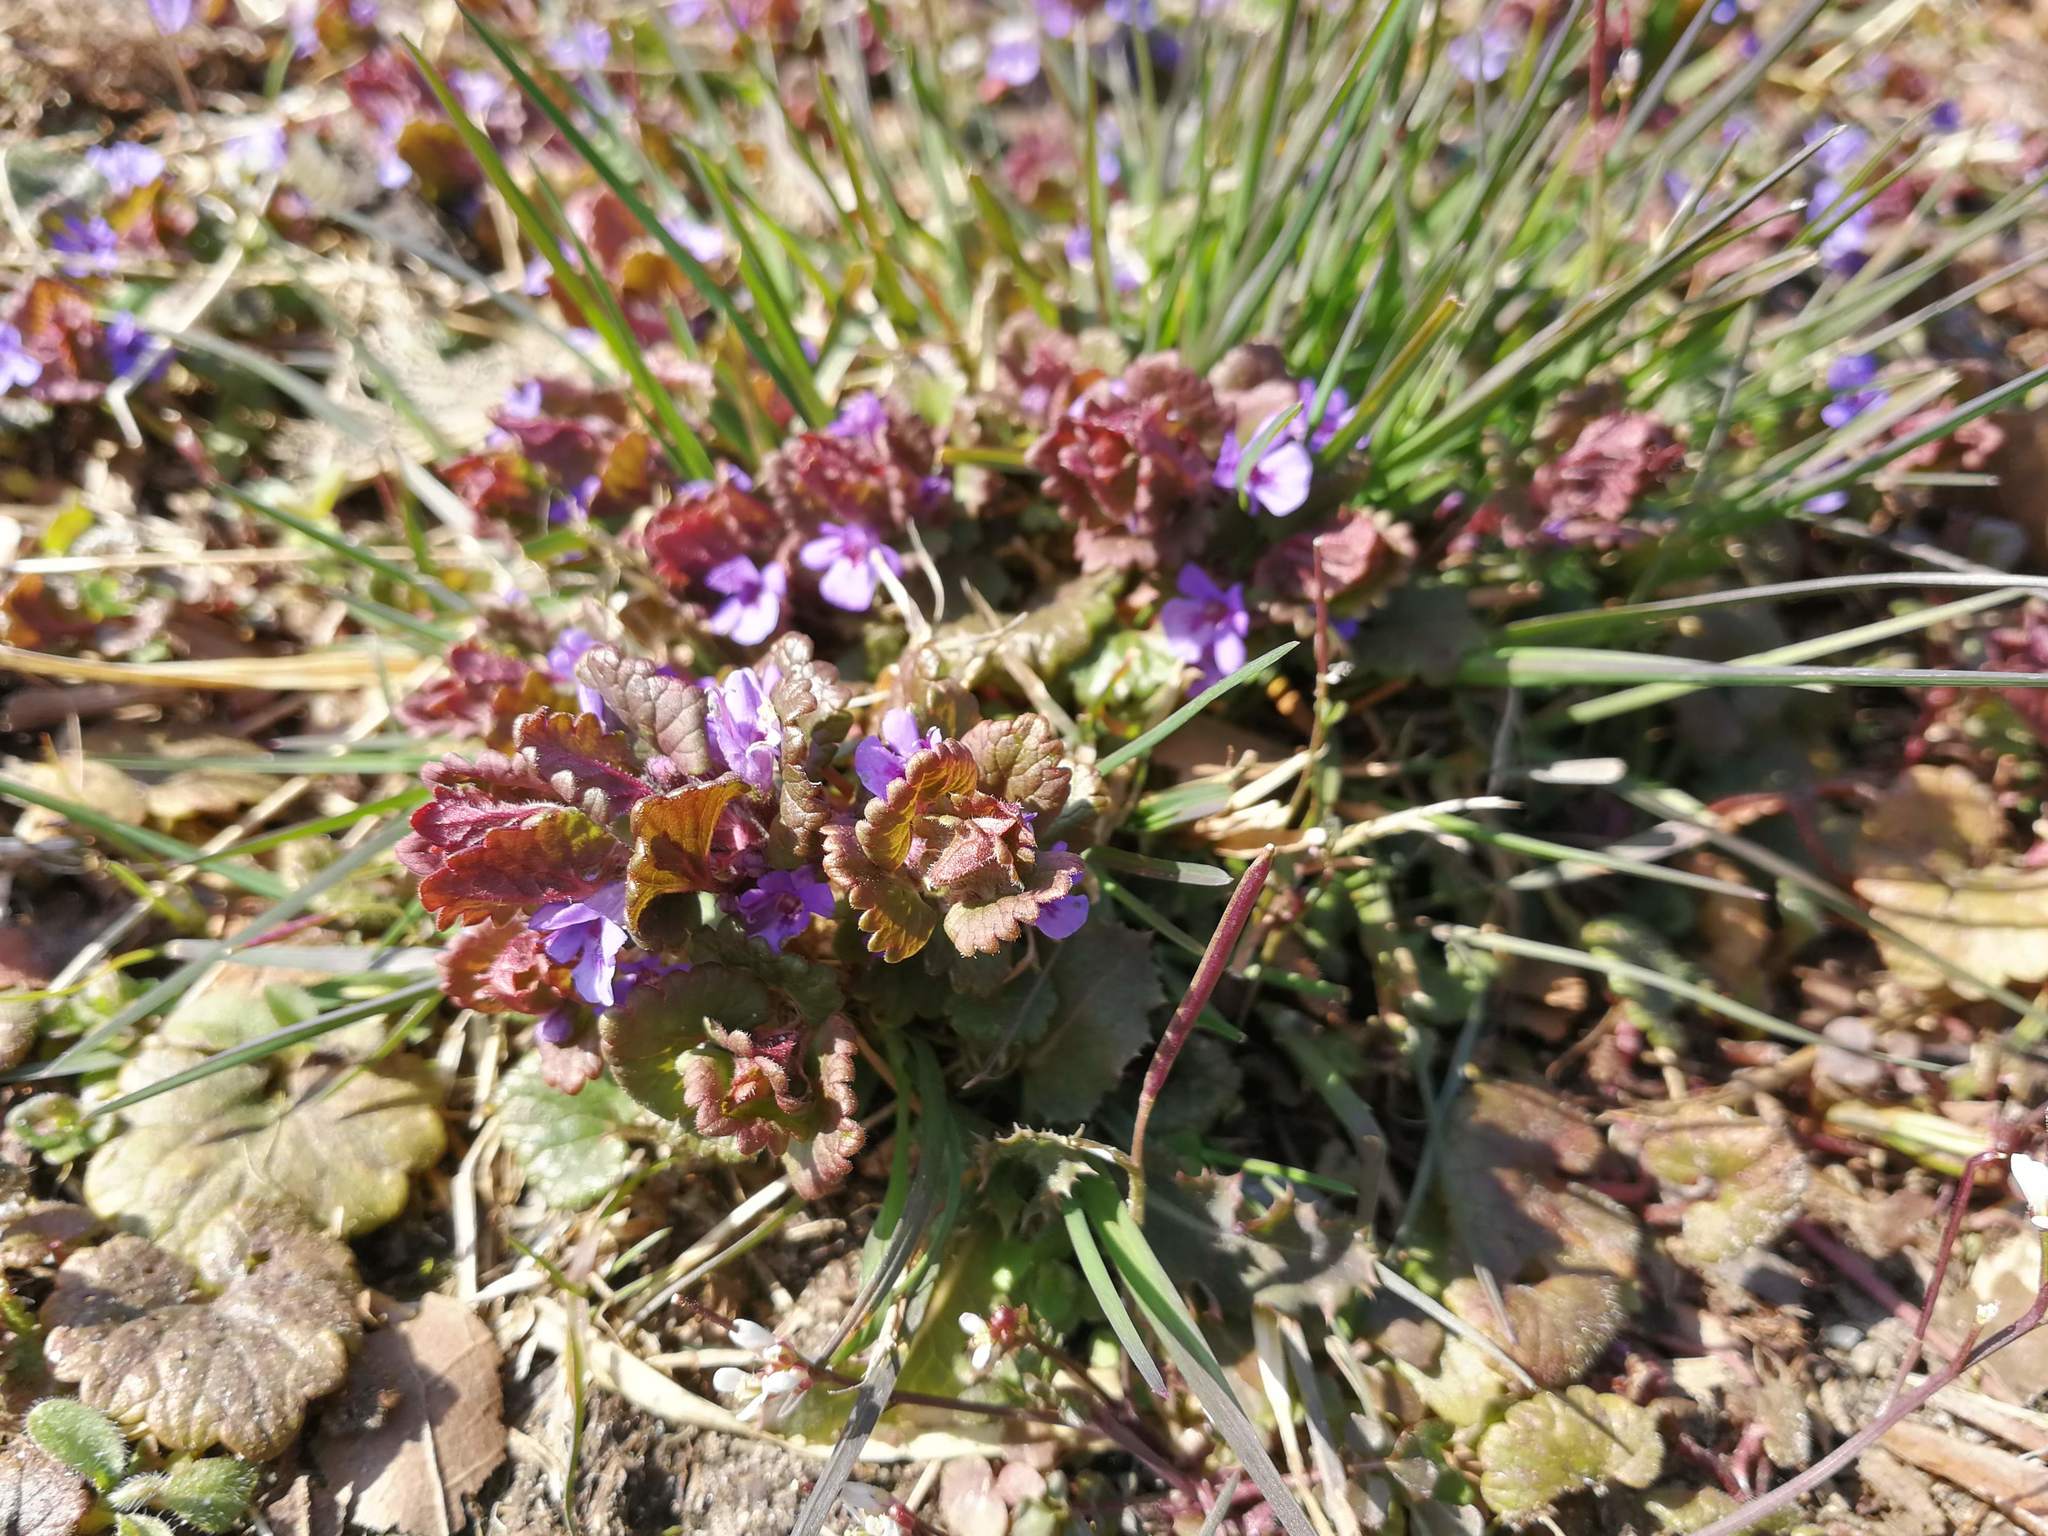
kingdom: Plantae
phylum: Tracheophyta
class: Magnoliopsida
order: Lamiales
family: Lamiaceae
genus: Glechoma
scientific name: Glechoma hederacea
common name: Ground ivy
